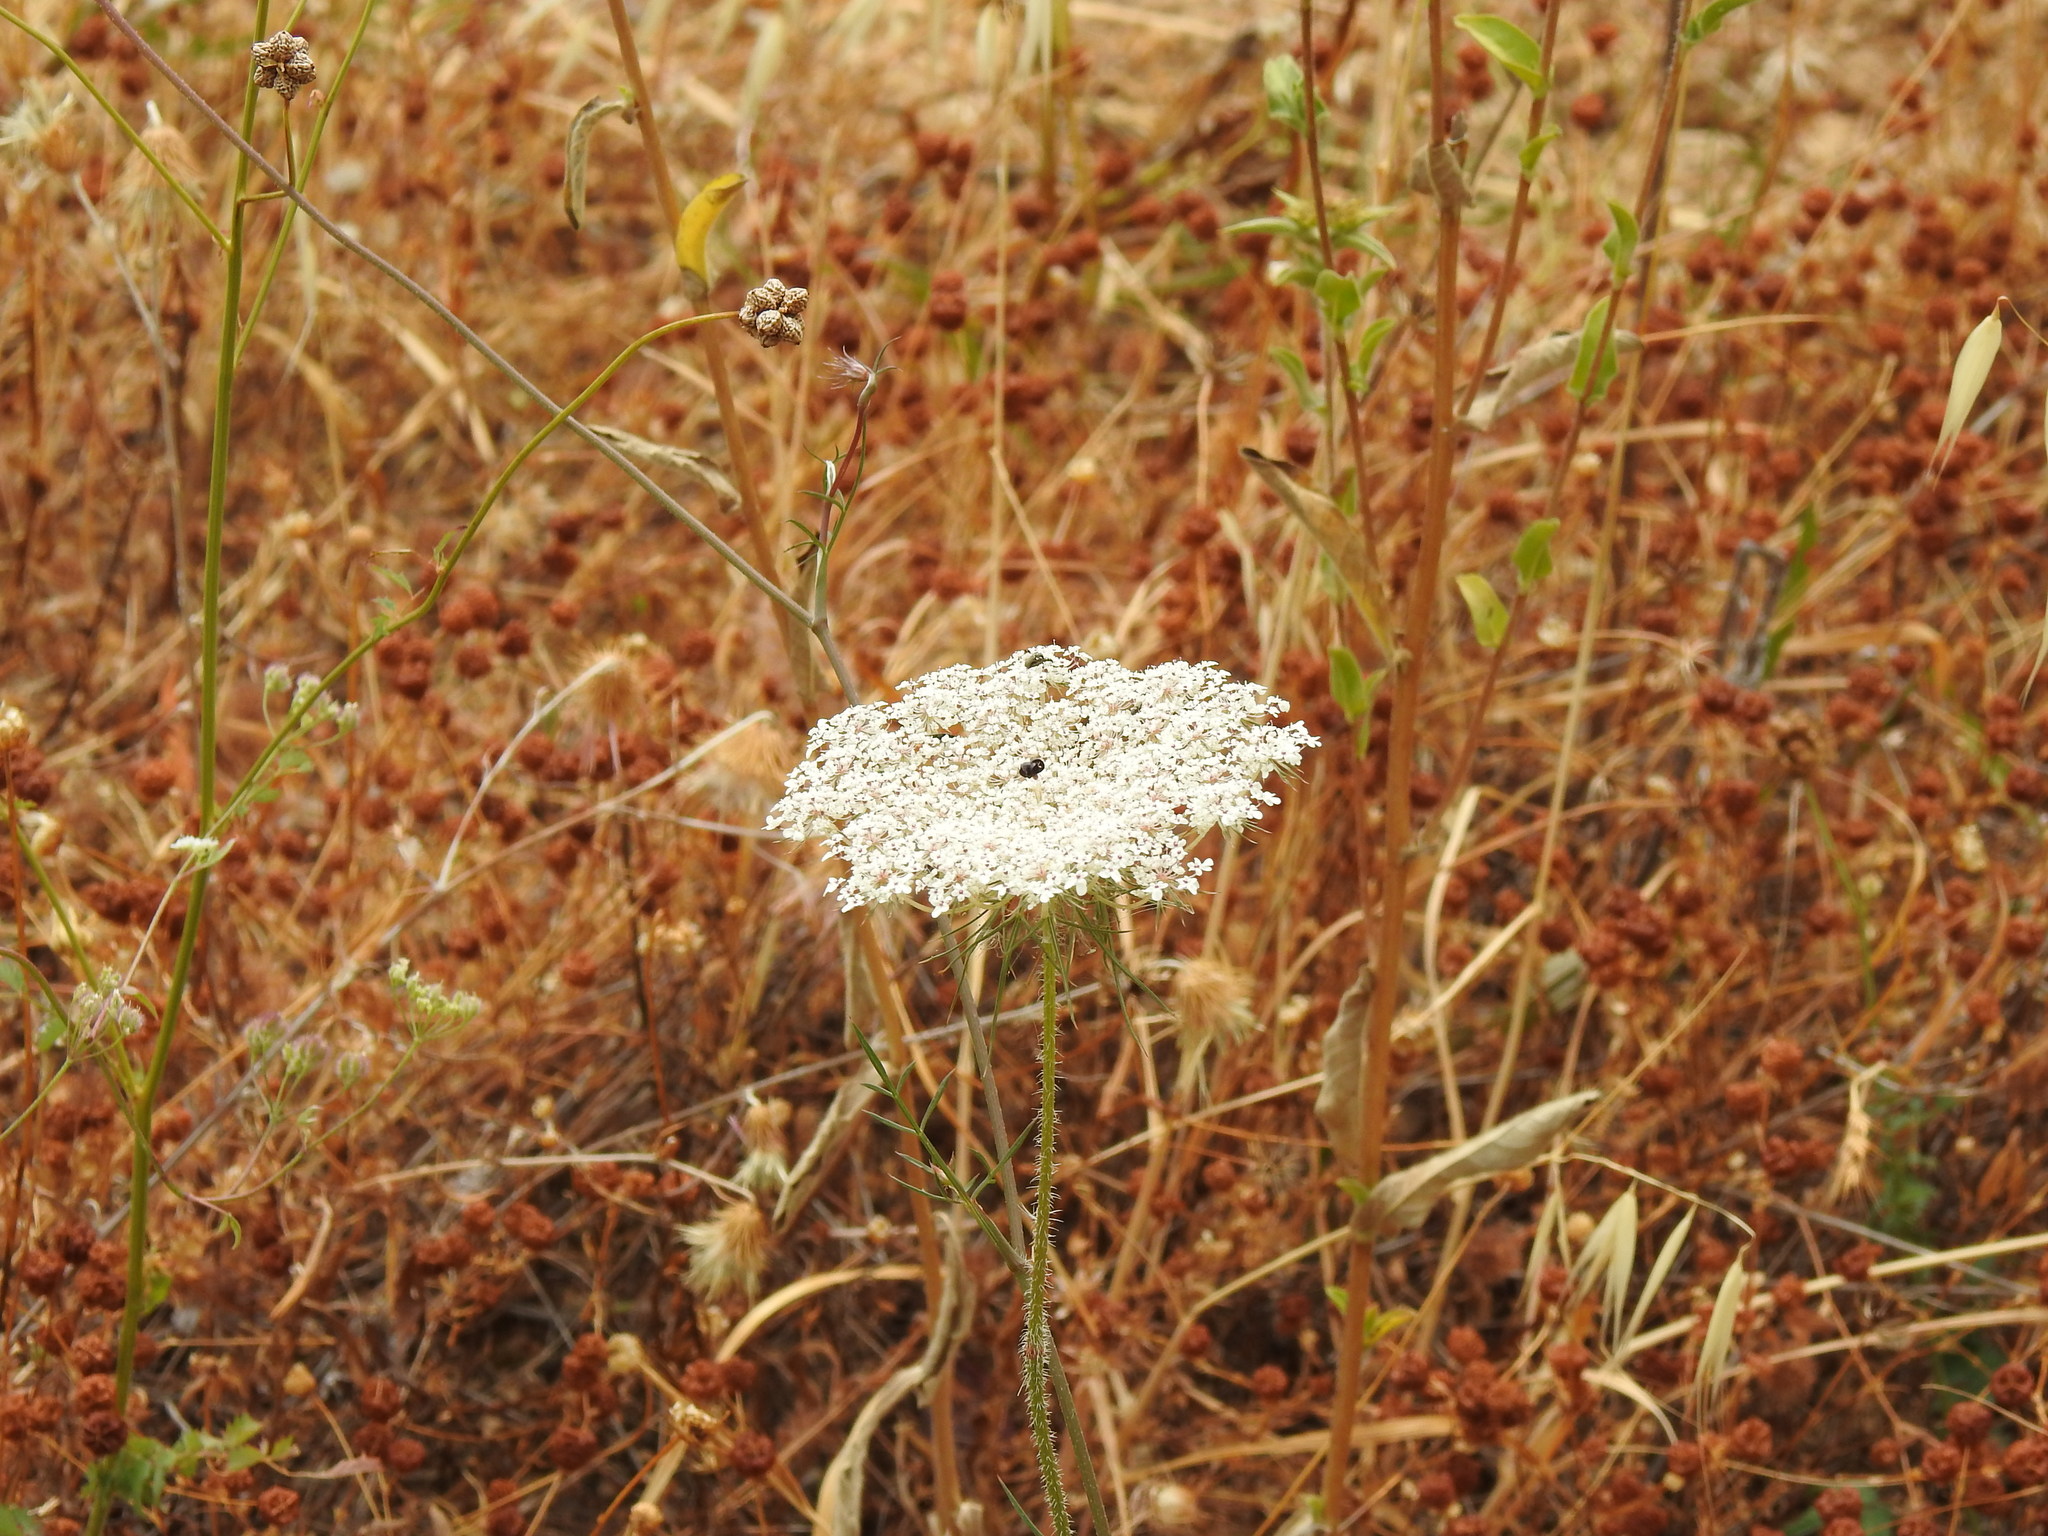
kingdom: Plantae
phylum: Tracheophyta
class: Magnoliopsida
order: Apiales
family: Apiaceae
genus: Daucus
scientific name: Daucus carota
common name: Wild carrot
